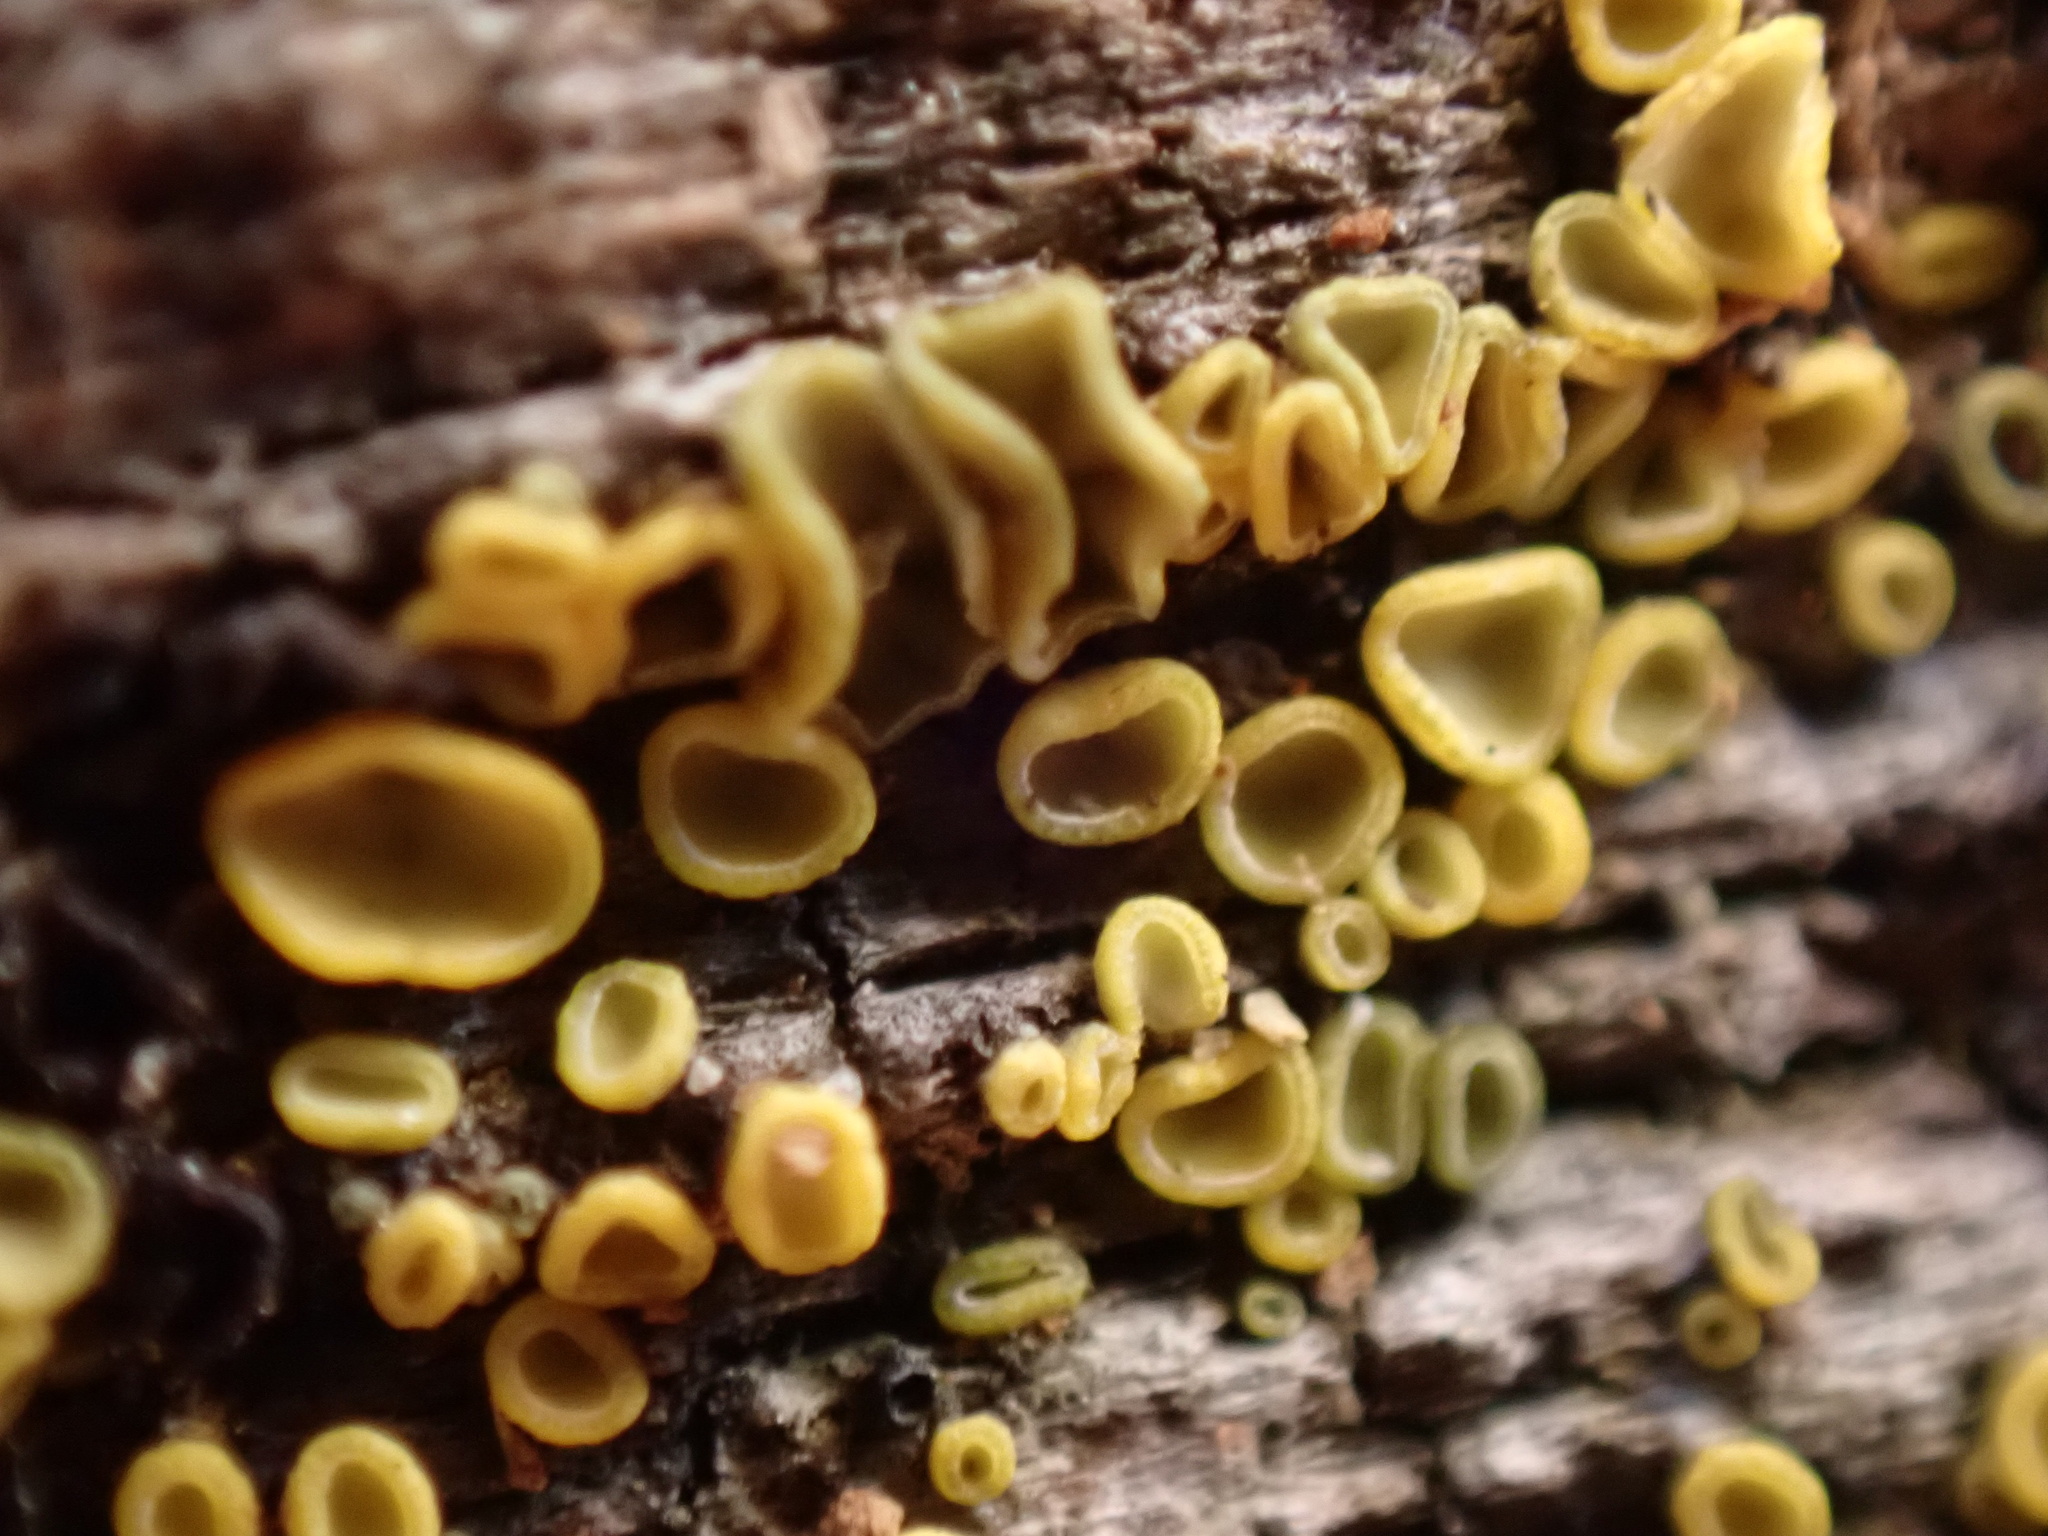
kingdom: Fungi
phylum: Ascomycota
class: Leotiomycetes
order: Helotiales
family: Chlorospleniaceae
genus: Chlorosplenium
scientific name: Chlorosplenium chlora
